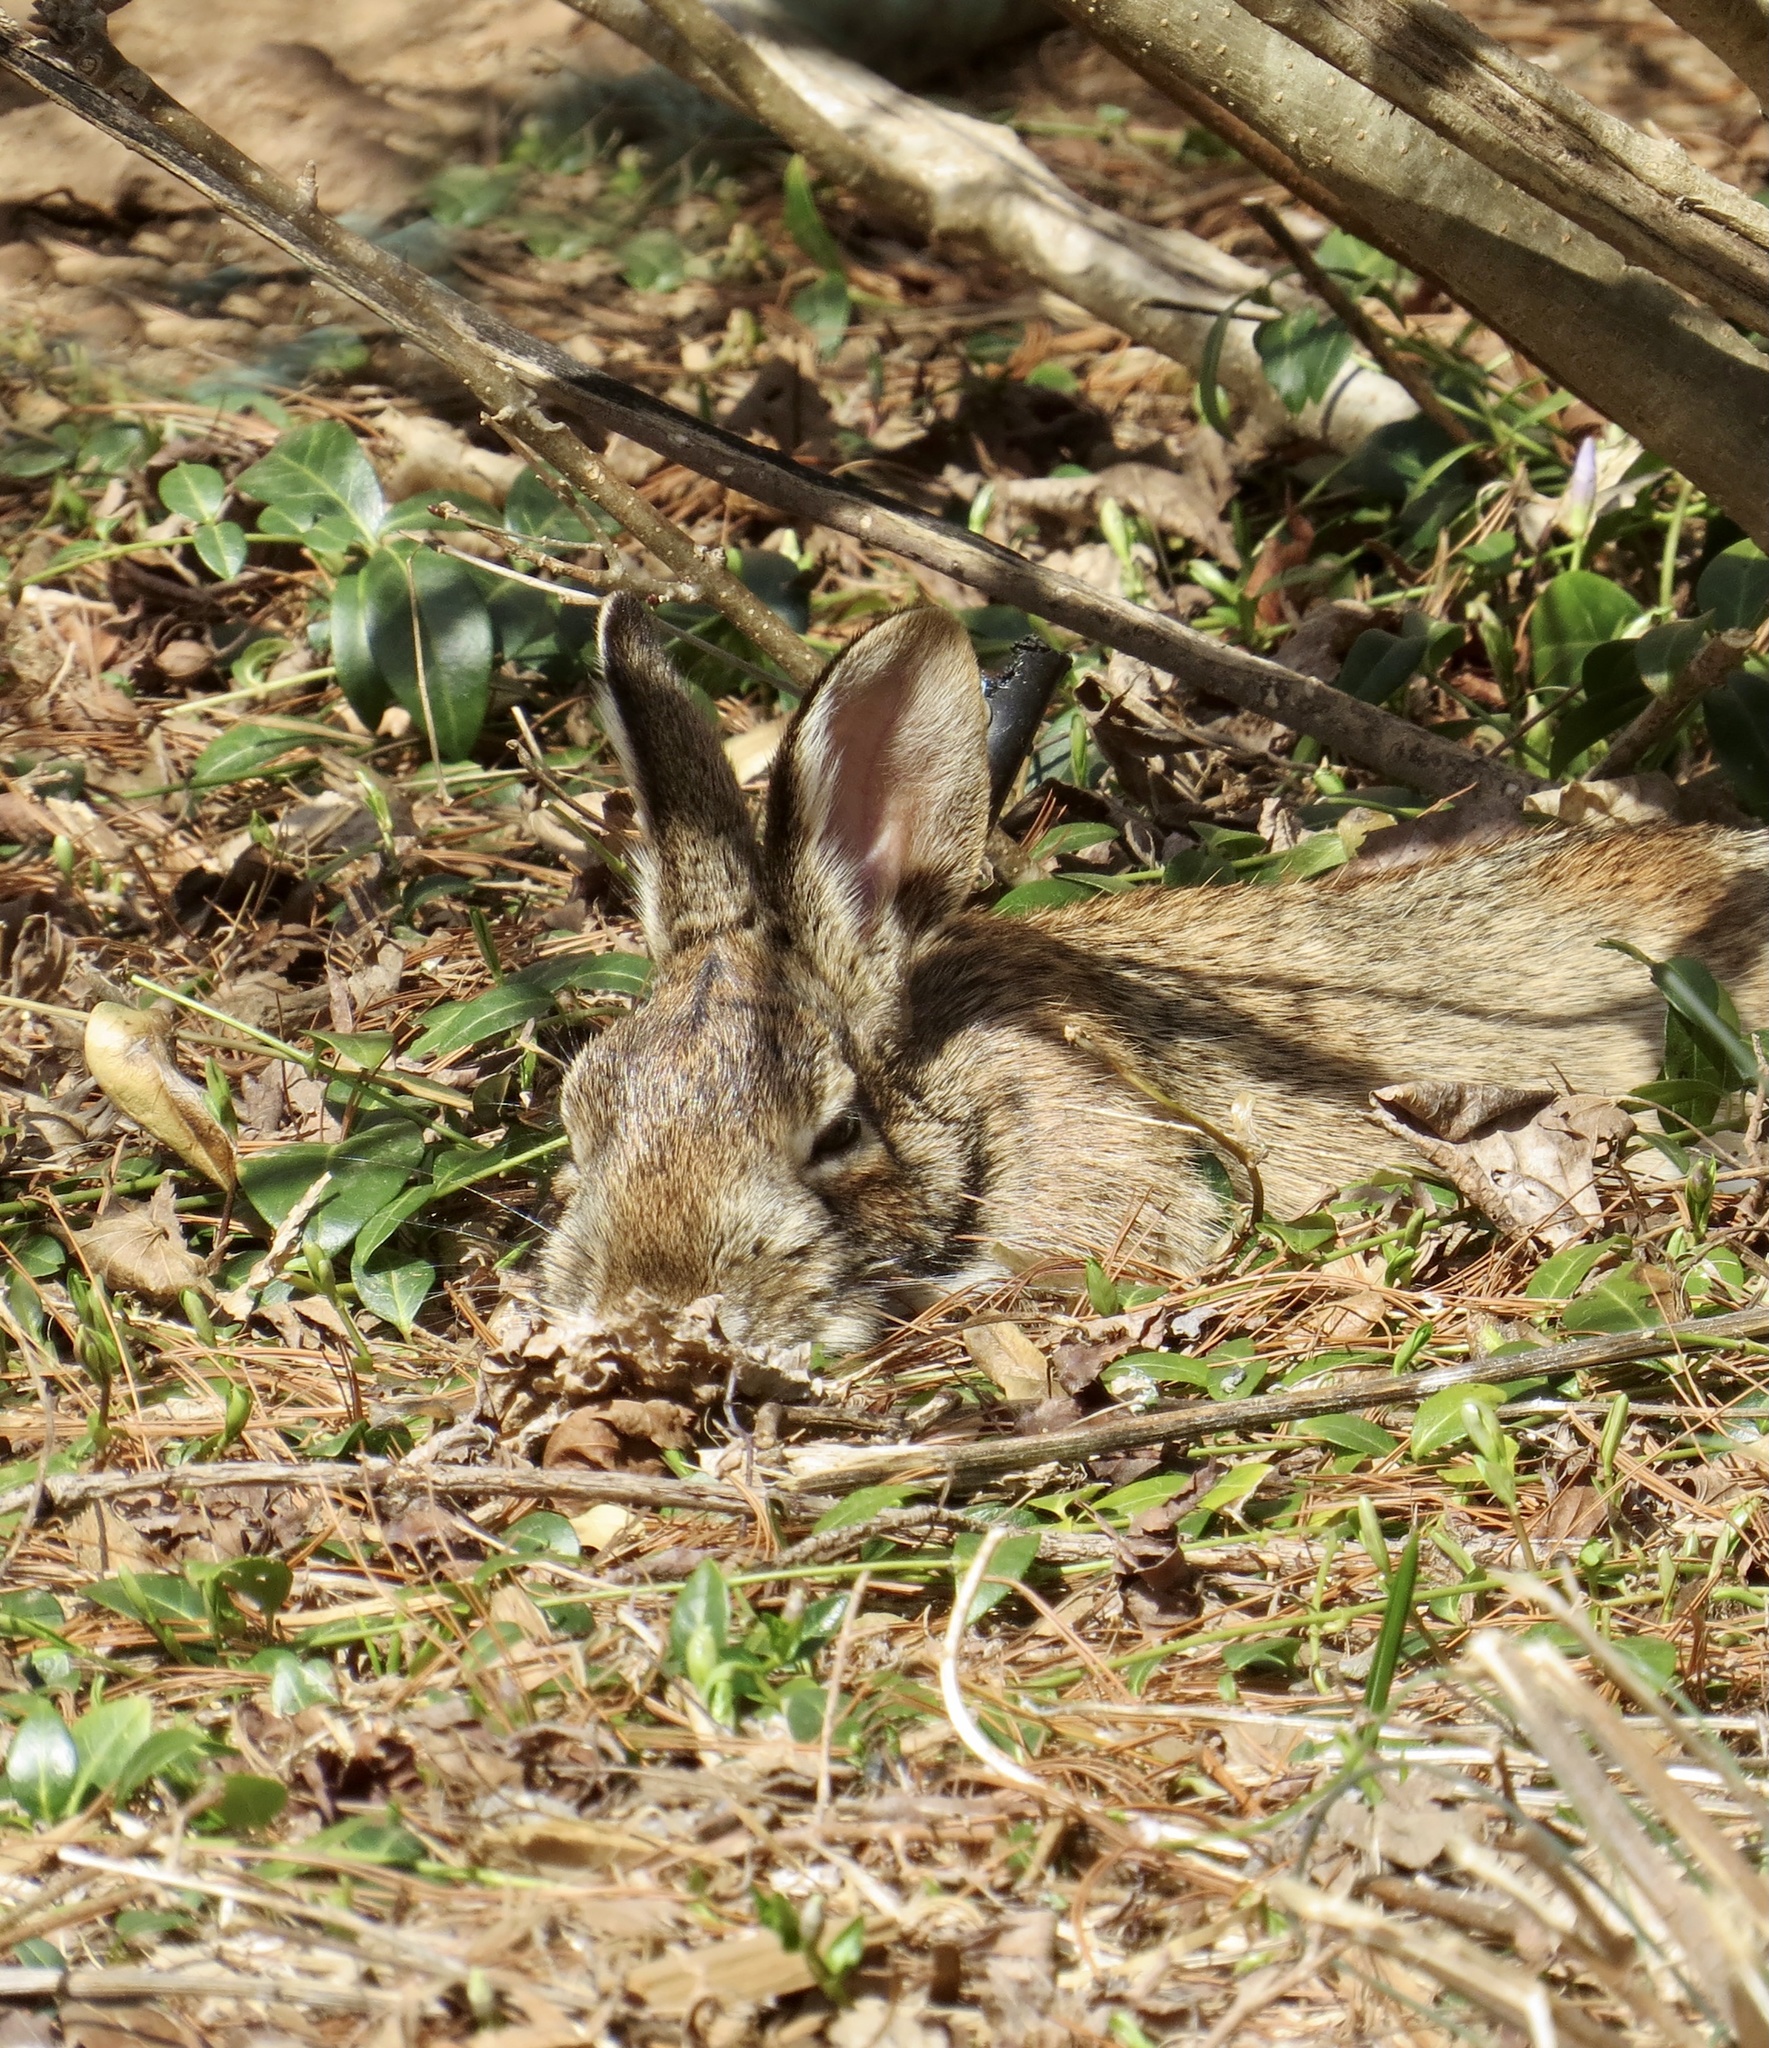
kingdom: Animalia
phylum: Chordata
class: Mammalia
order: Lagomorpha
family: Leporidae
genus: Sylvilagus
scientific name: Sylvilagus floridanus
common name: Eastern cottontail
